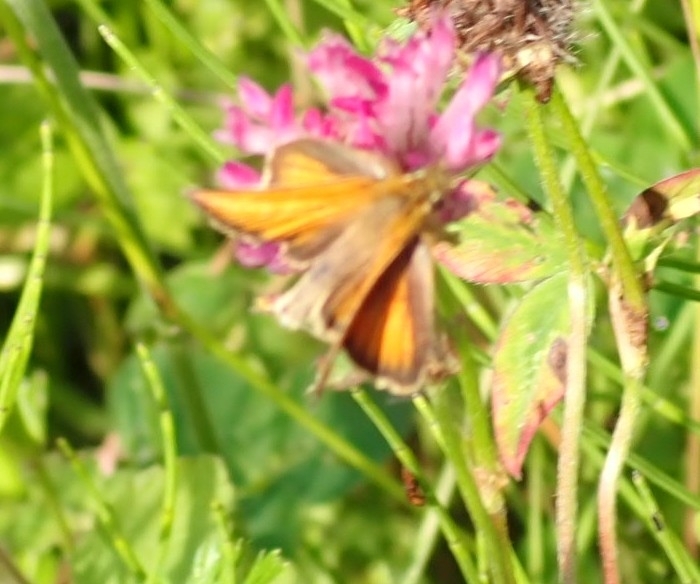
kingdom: Animalia
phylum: Arthropoda
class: Insecta
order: Lepidoptera
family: Hesperiidae
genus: Thymelicus
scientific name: Thymelicus lineola
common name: Essex skipper
